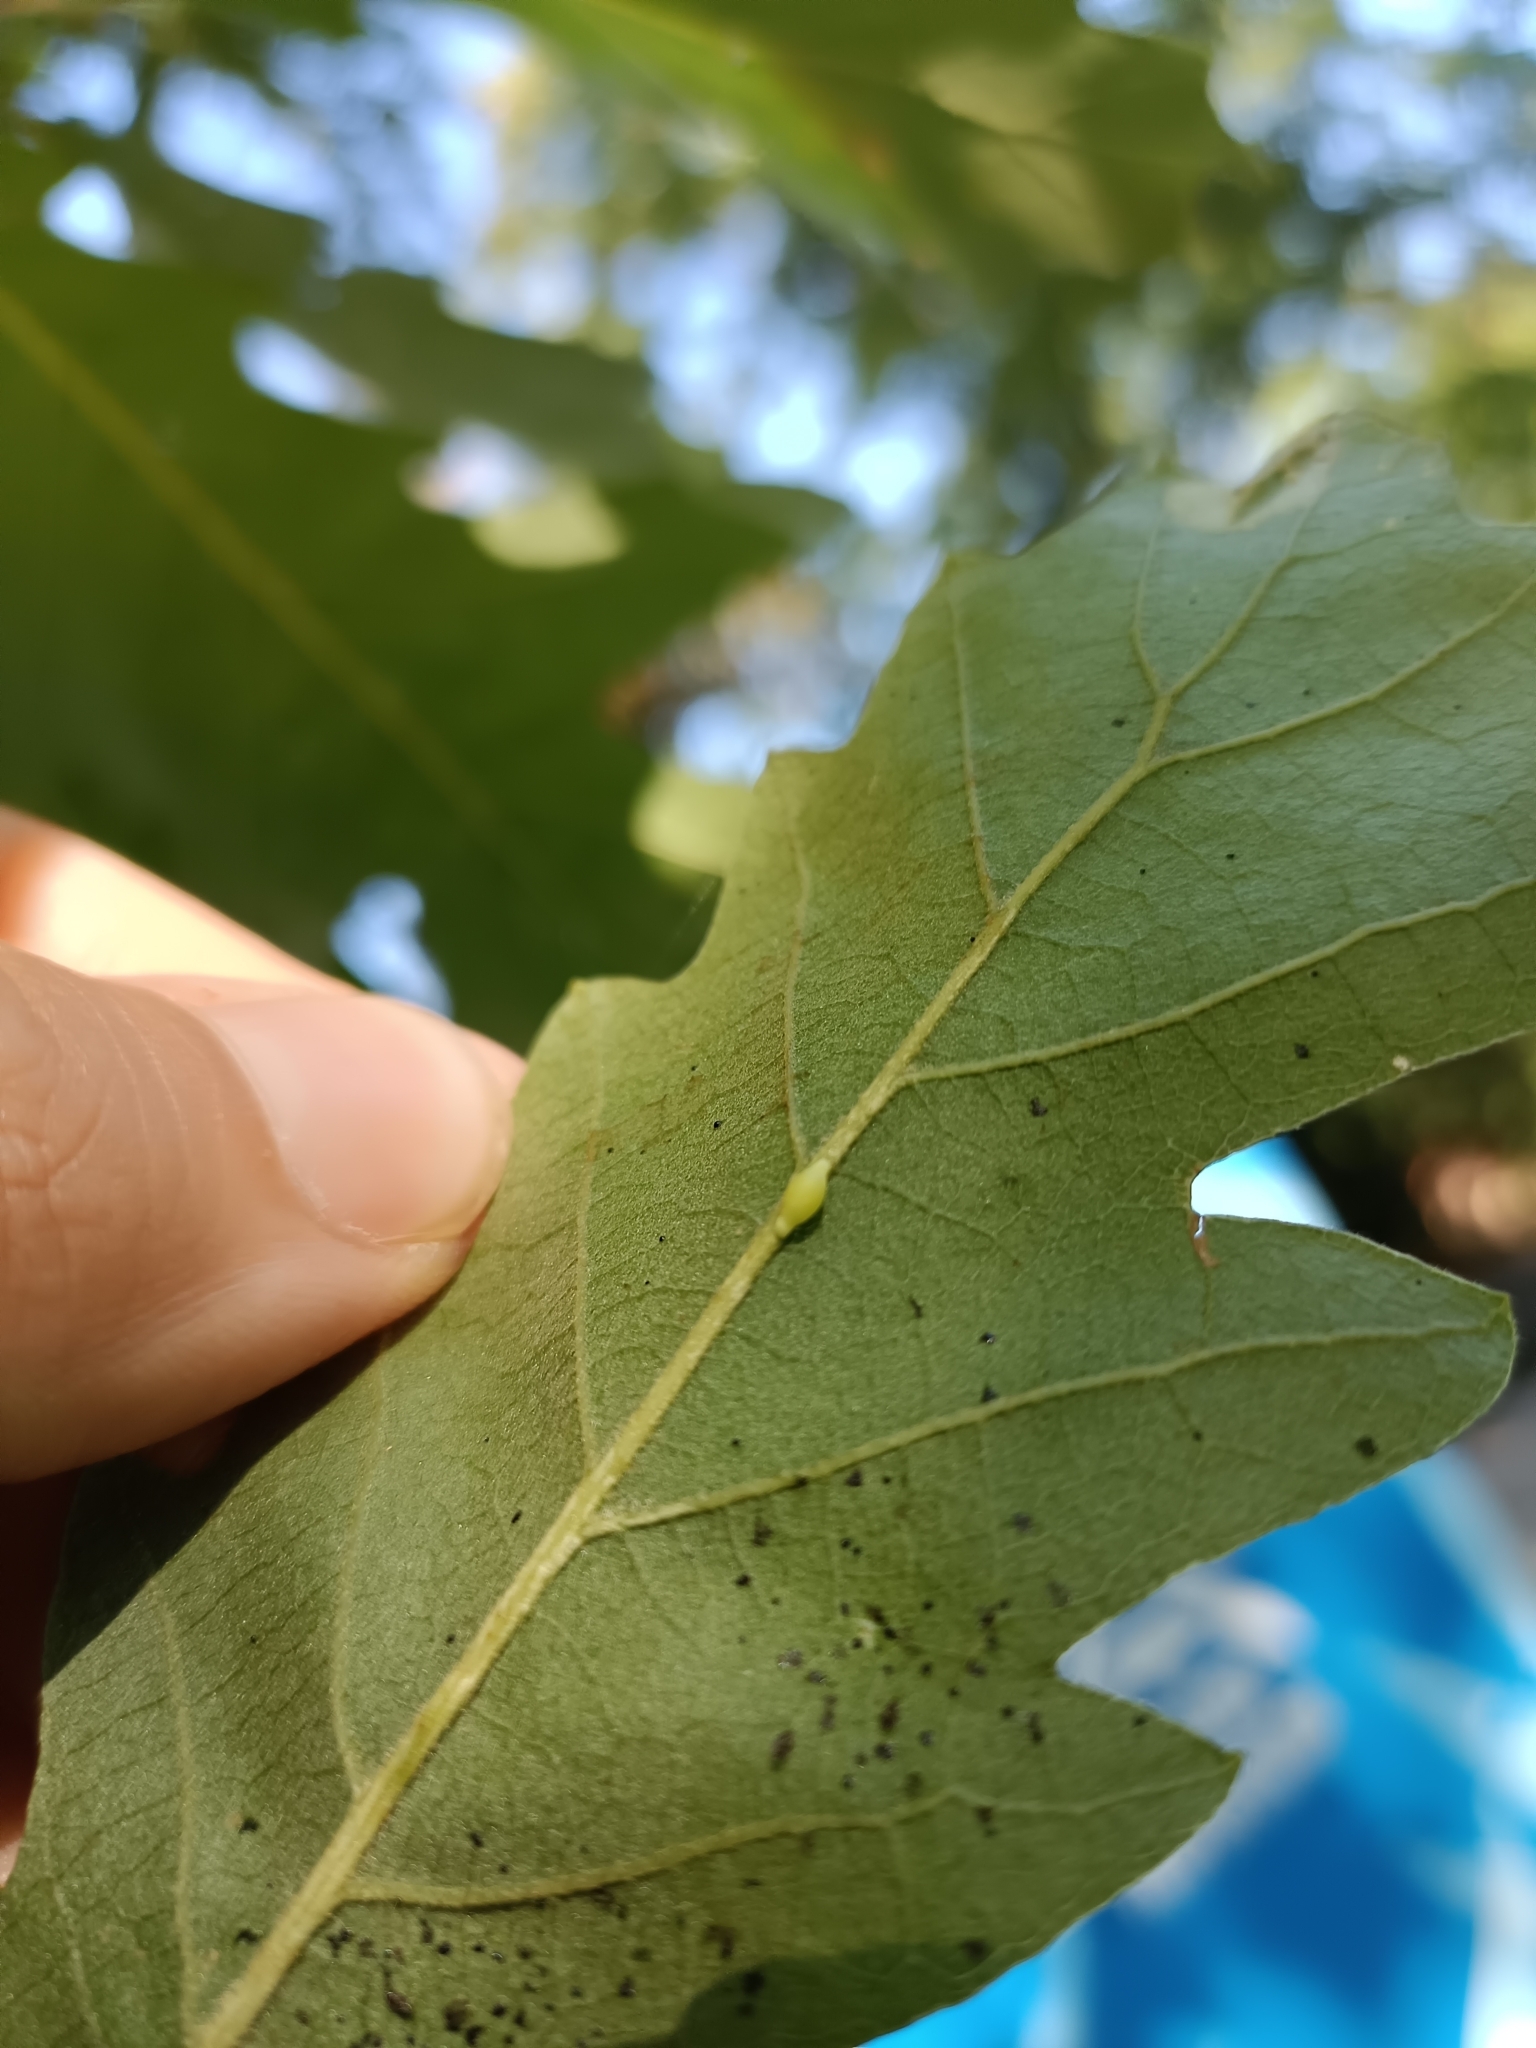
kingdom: Animalia
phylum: Arthropoda
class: Insecta
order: Hymenoptera
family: Cynipidae
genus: Neuroterus
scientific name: Neuroterus saliens
